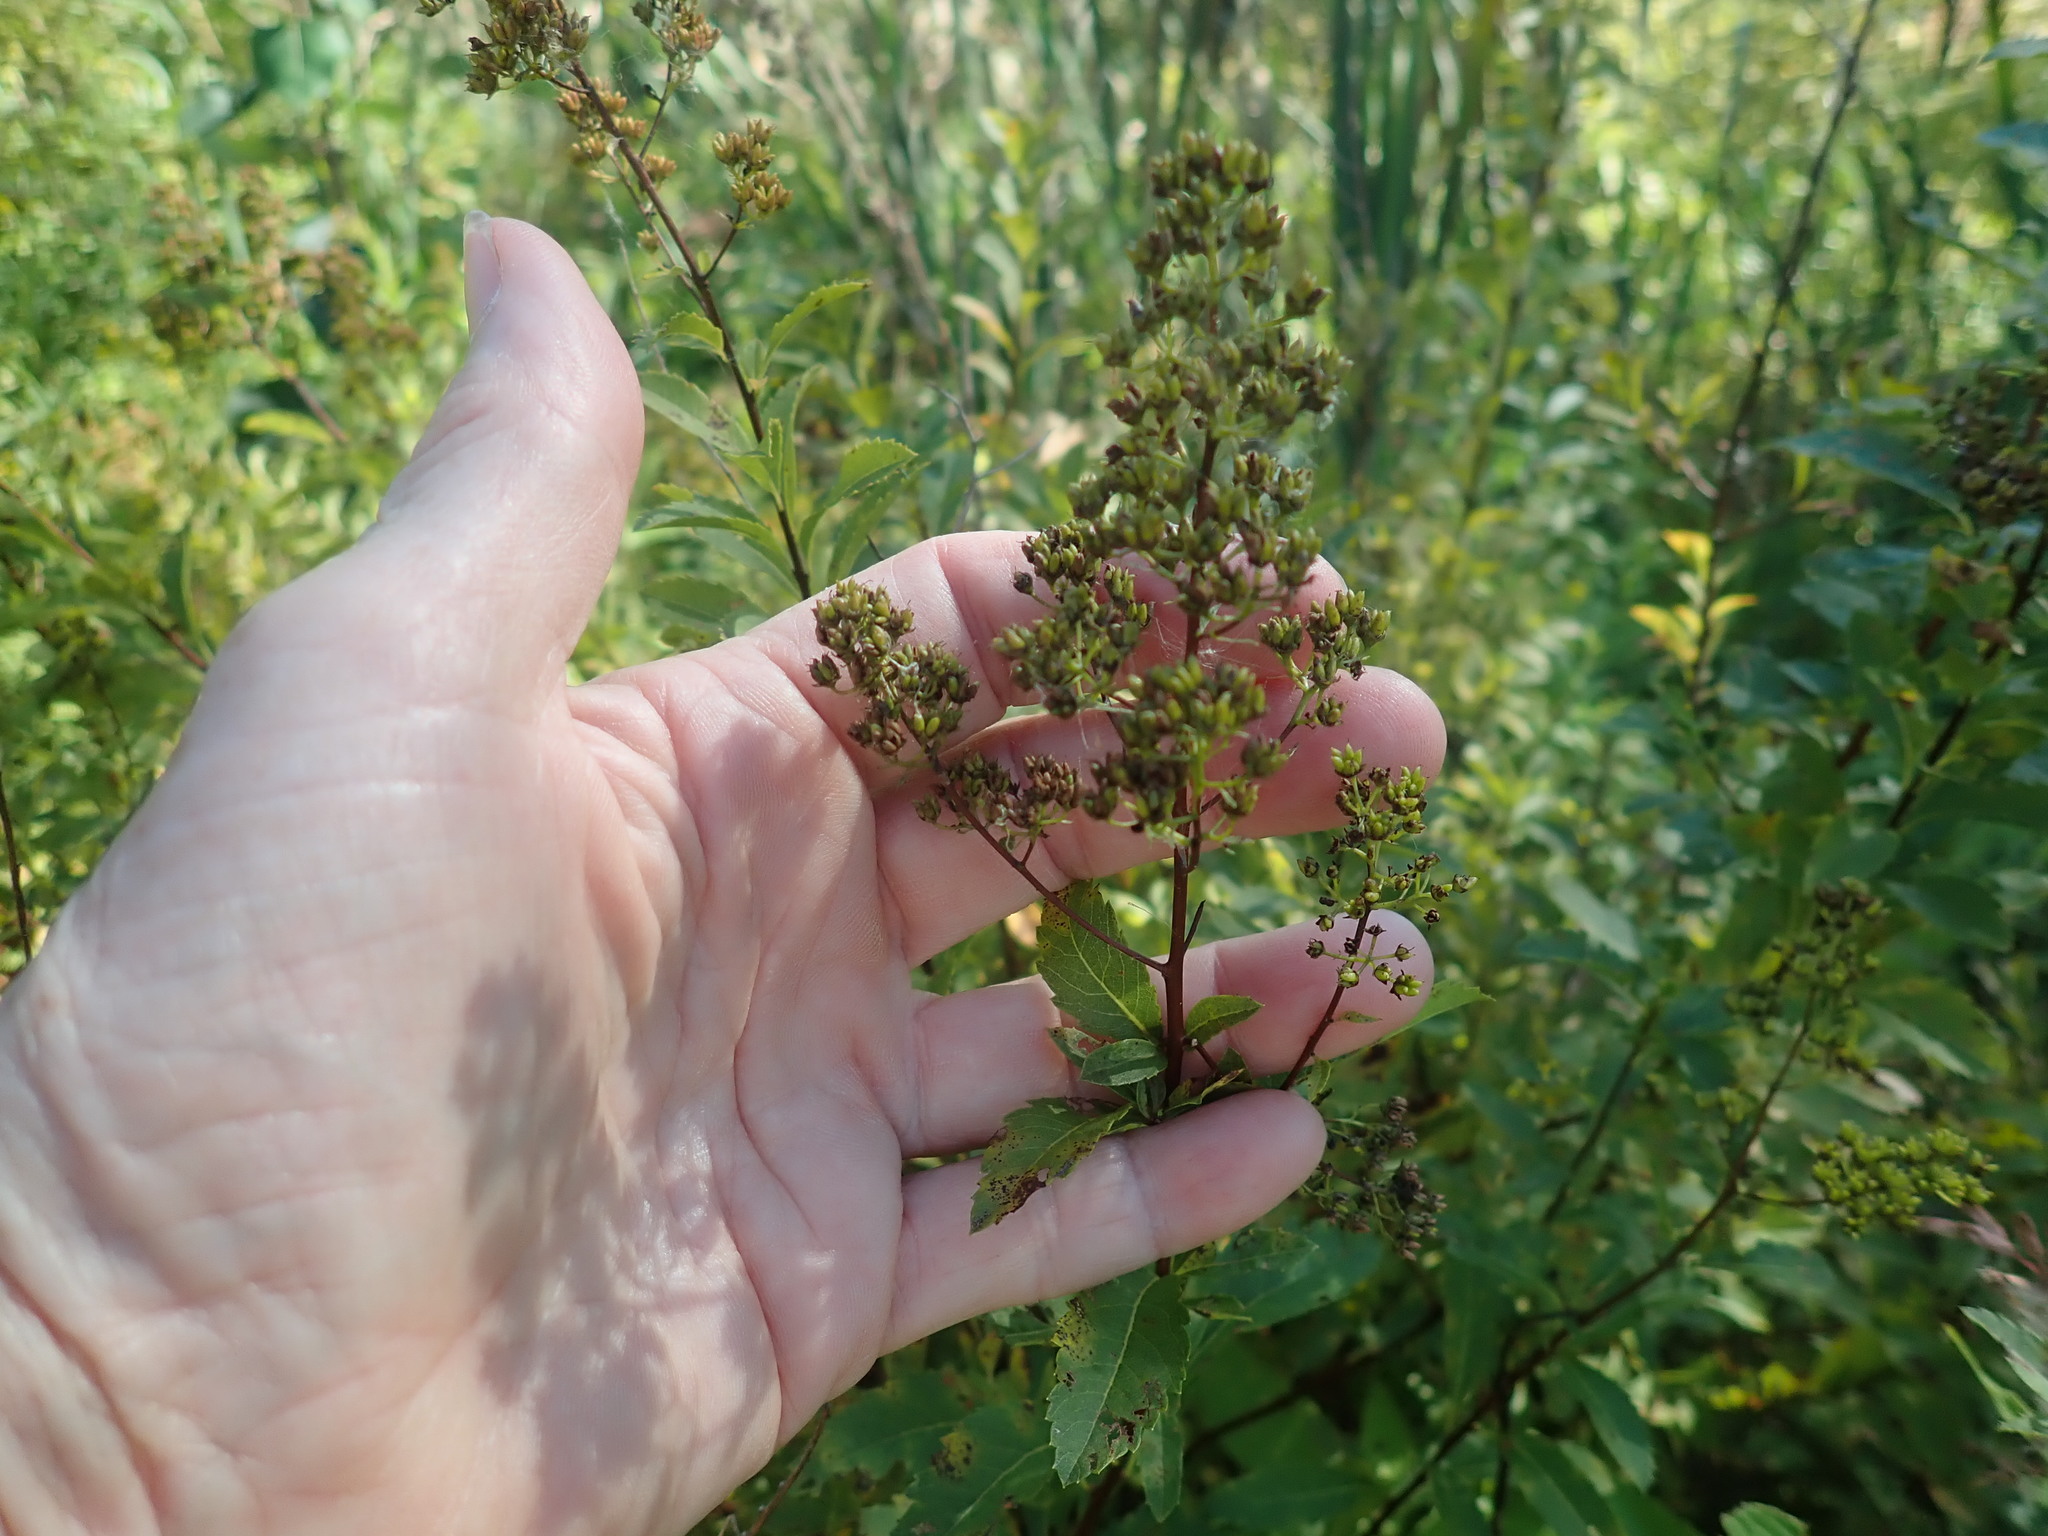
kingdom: Plantae
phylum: Tracheophyta
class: Magnoliopsida
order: Rosales
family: Rosaceae
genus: Spiraea
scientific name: Spiraea alba
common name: Pale bridewort
